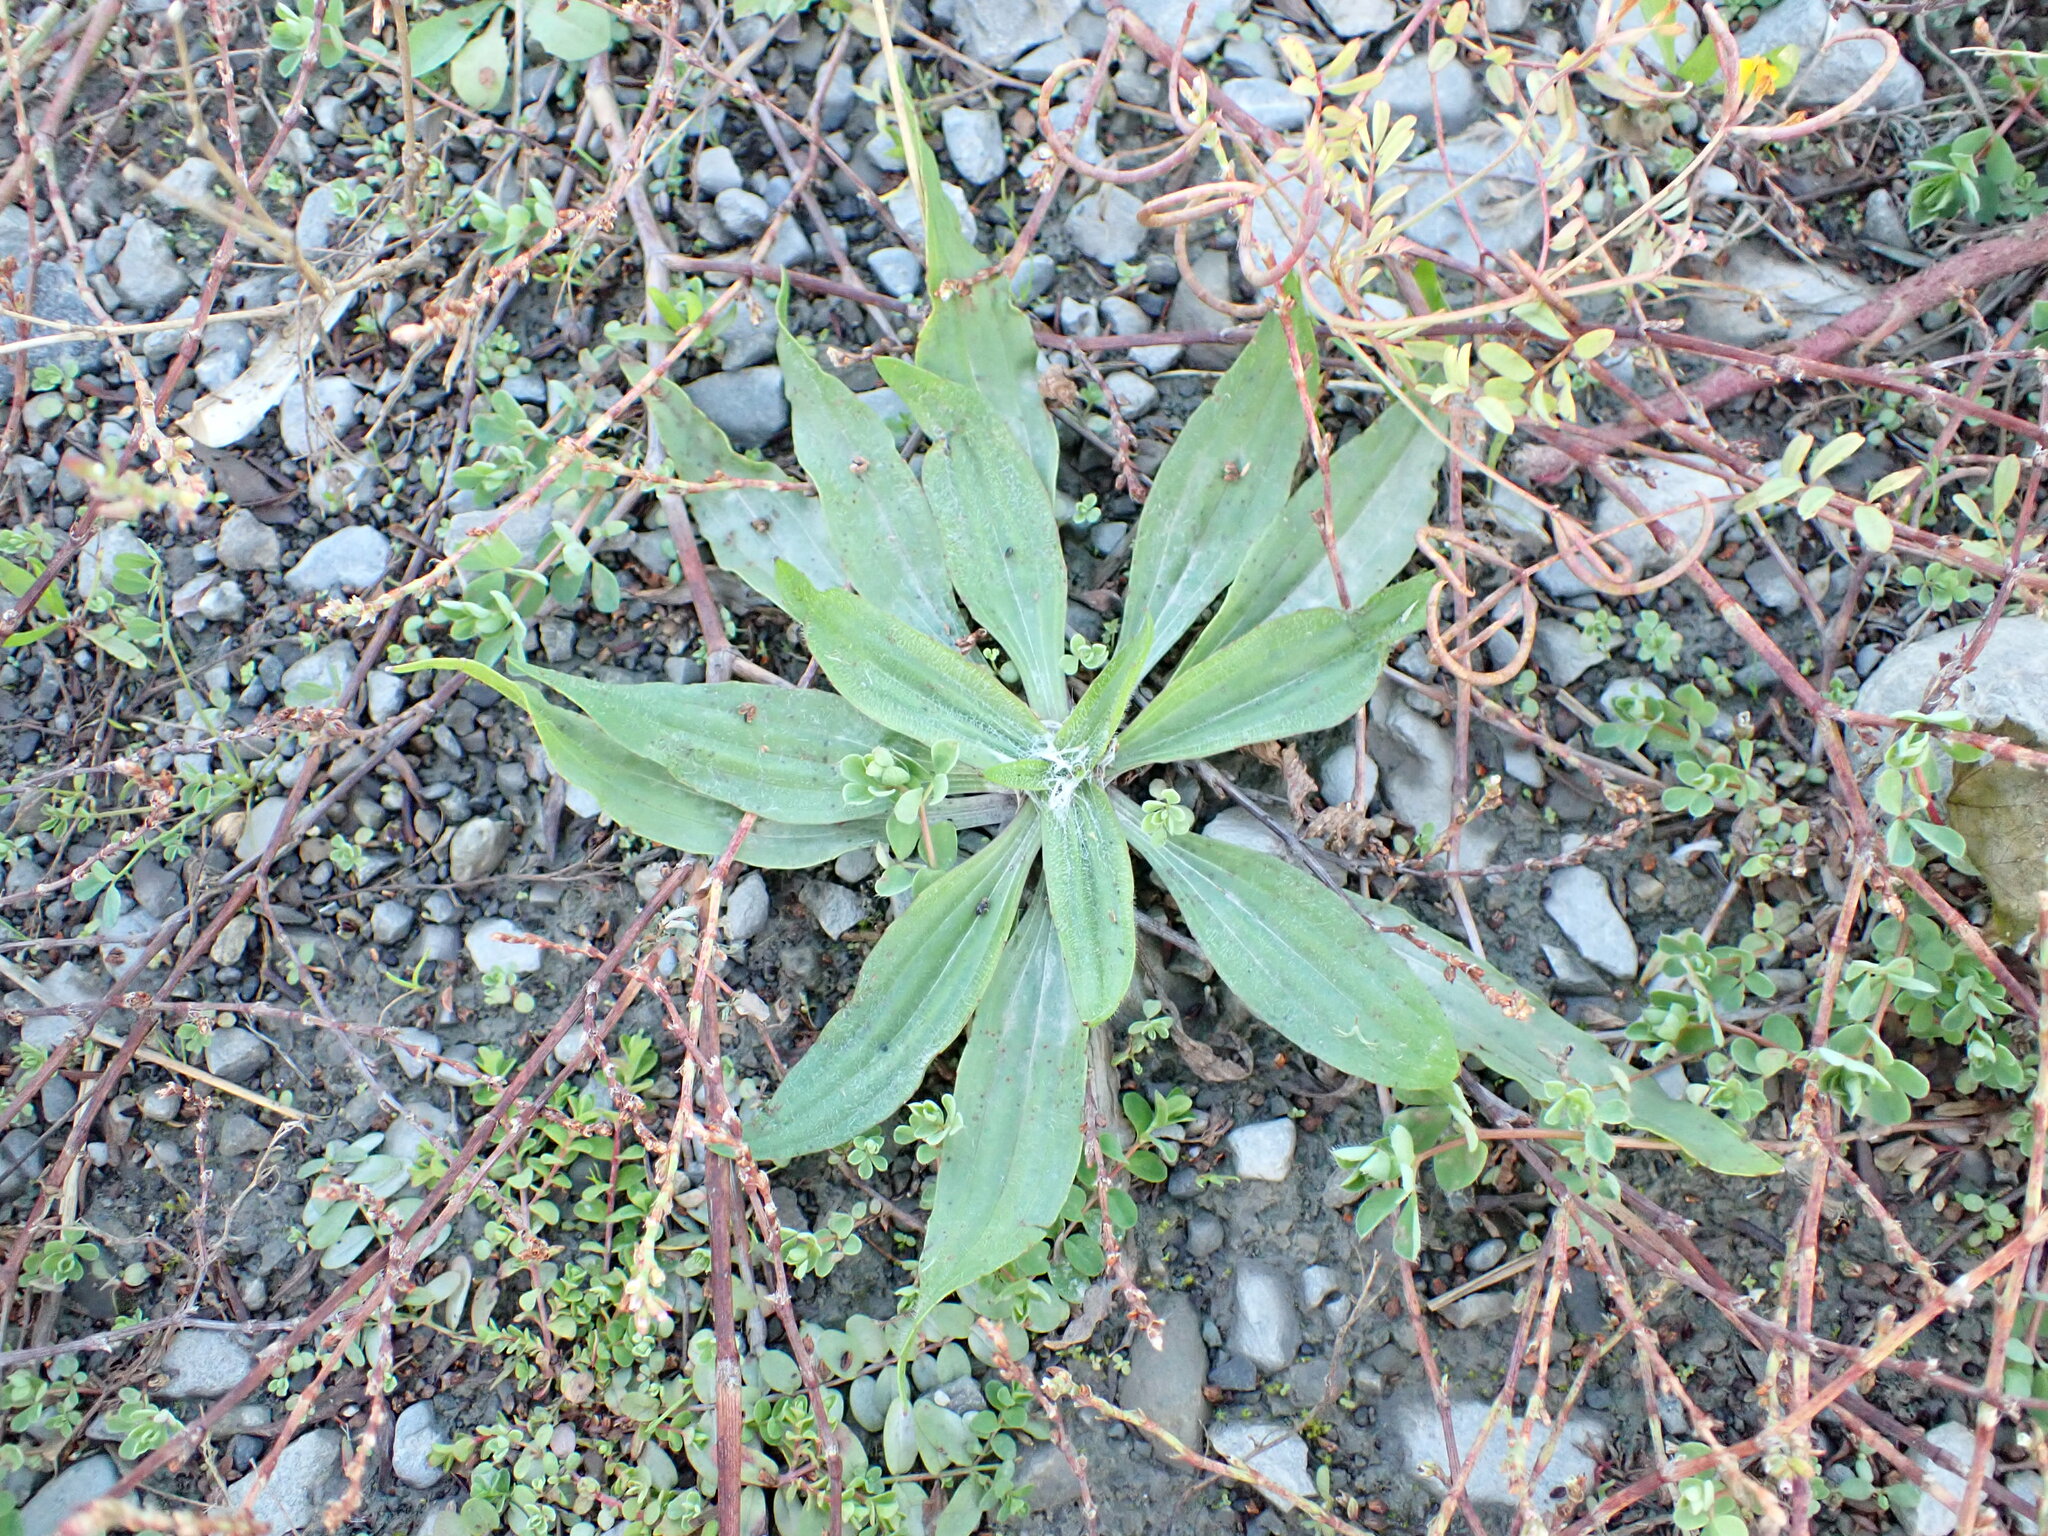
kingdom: Plantae
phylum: Tracheophyta
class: Magnoliopsida
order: Lamiales
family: Plantaginaceae
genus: Plantago
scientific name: Plantago lanceolata
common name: Ribwort plantain
